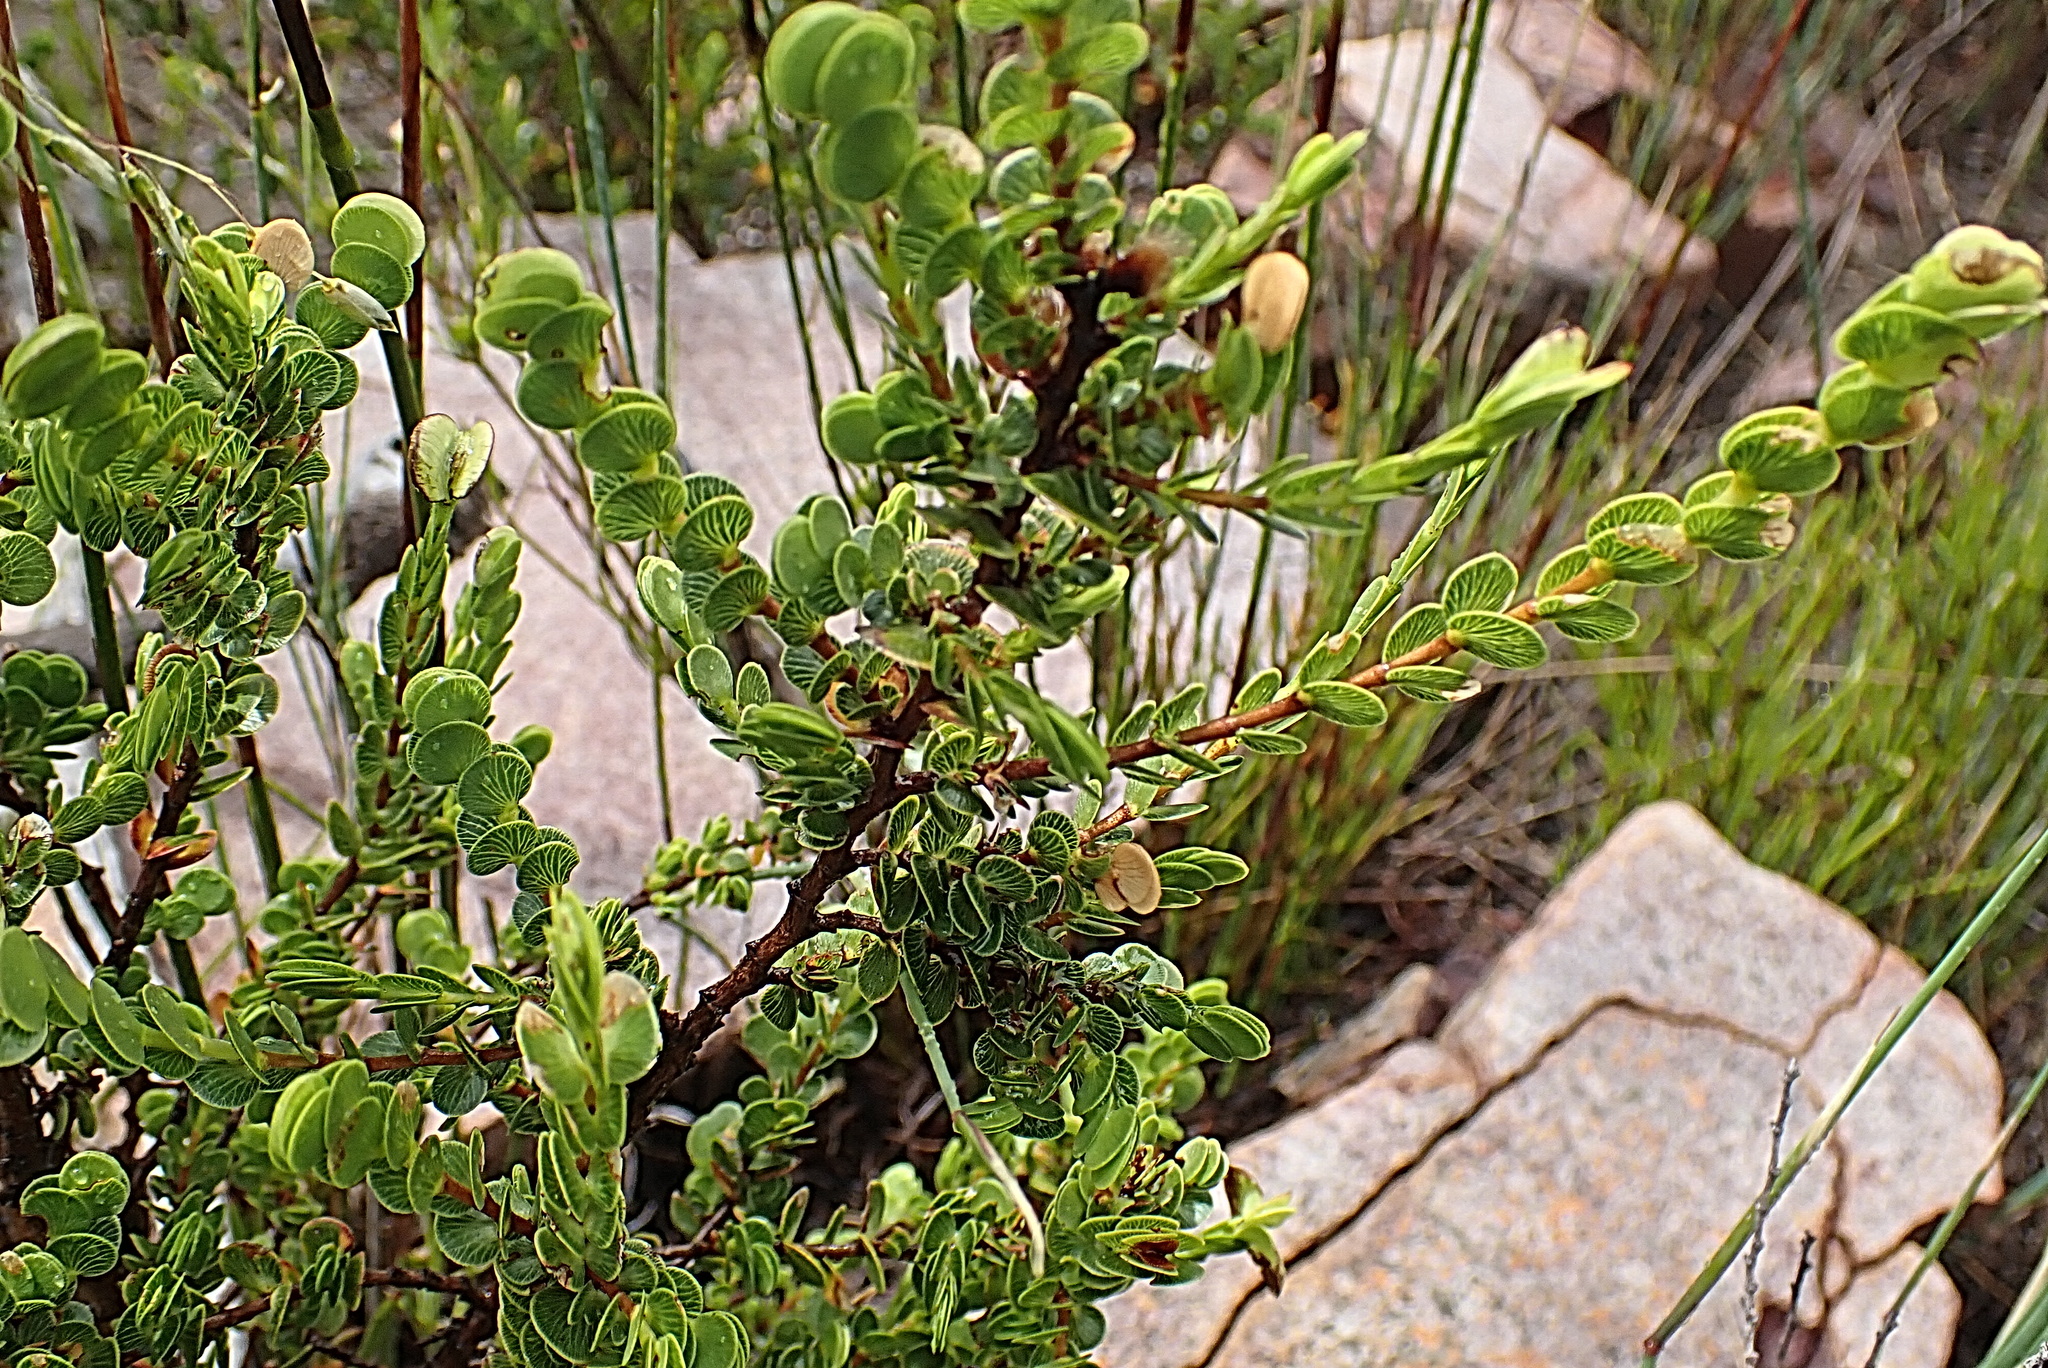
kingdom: Plantae
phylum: Tracheophyta
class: Magnoliopsida
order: Rosales
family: Rosaceae
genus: Cliffortia
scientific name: Cliffortia pulchella
